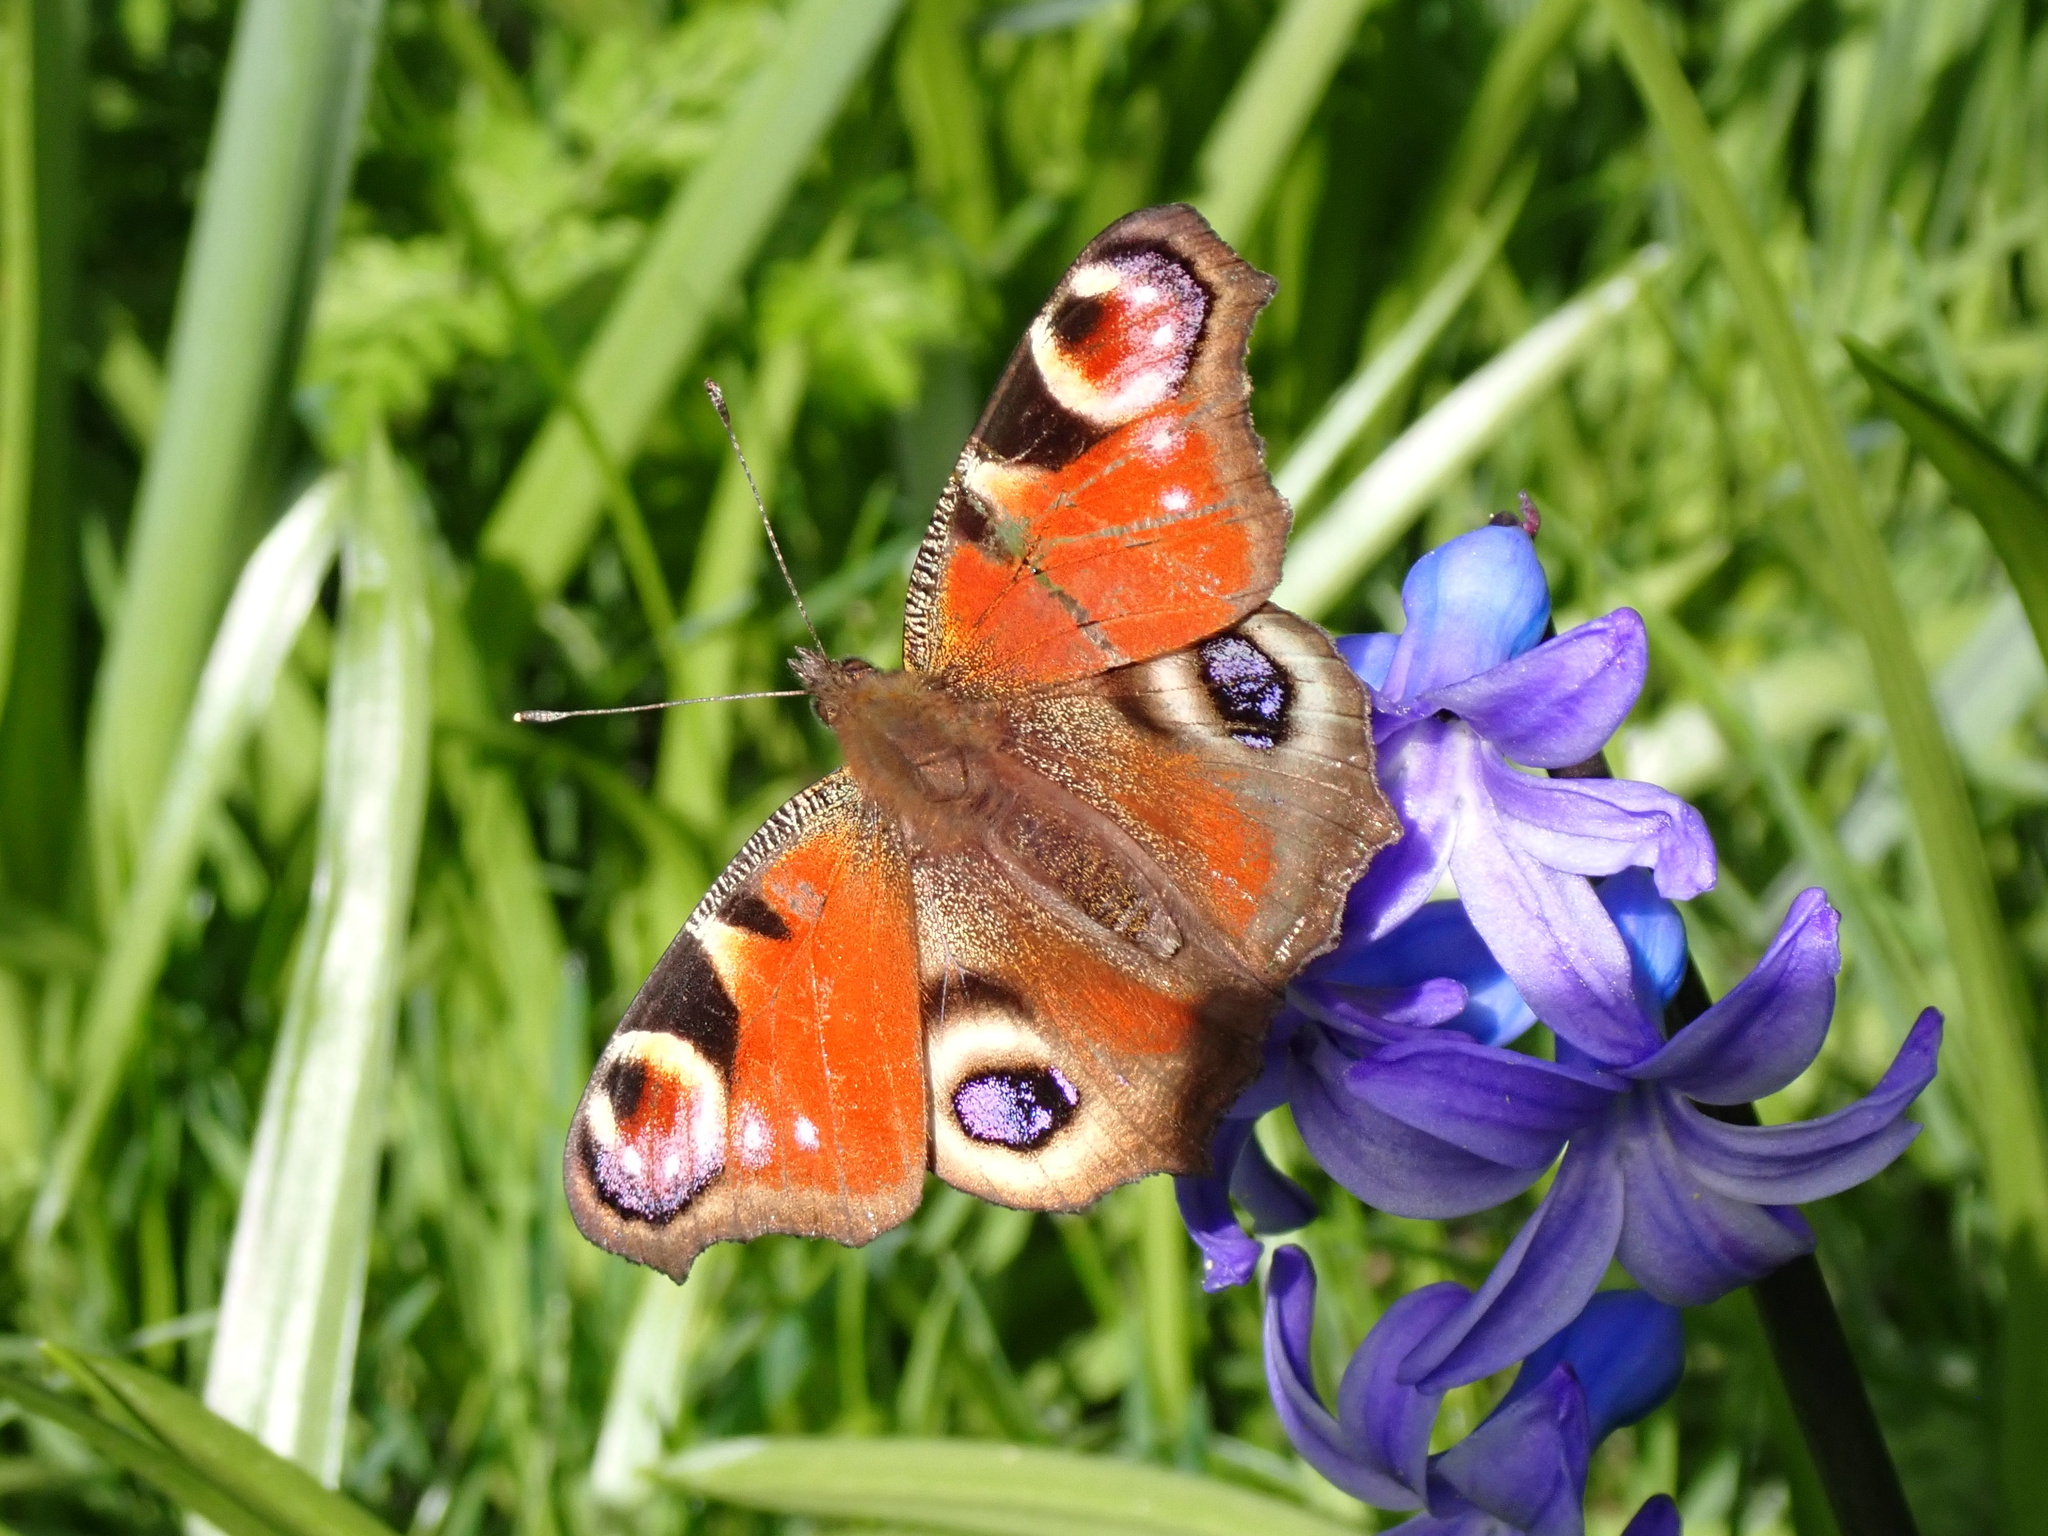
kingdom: Animalia
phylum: Arthropoda
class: Insecta
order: Lepidoptera
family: Nymphalidae
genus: Aglais
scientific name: Aglais io
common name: Peacock
